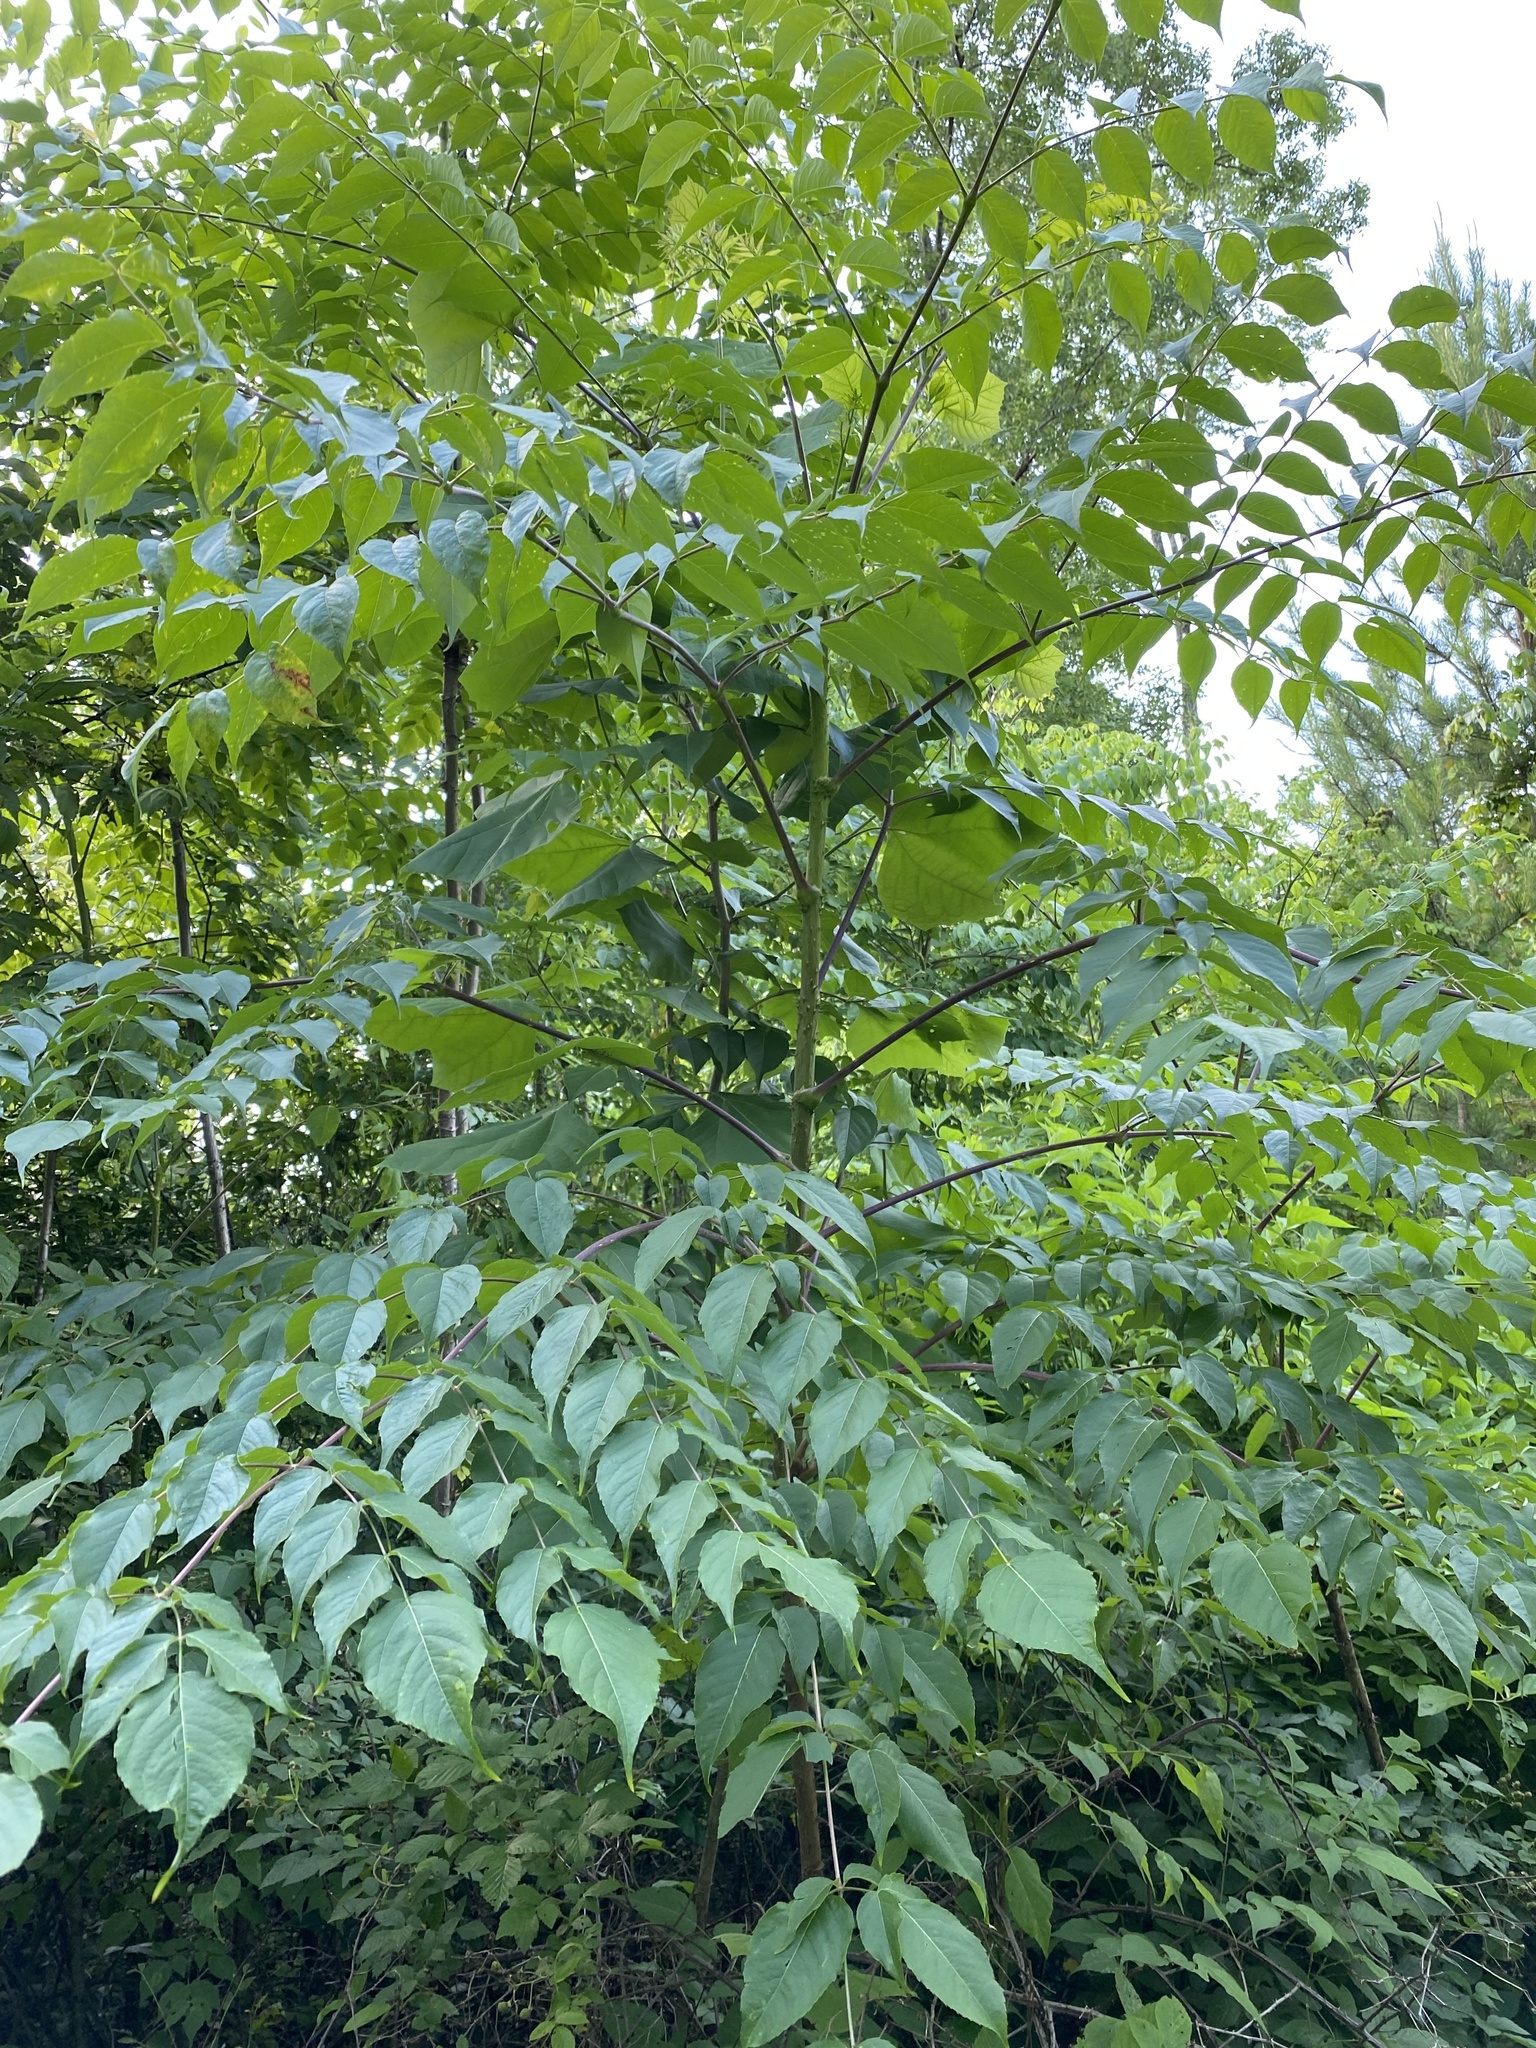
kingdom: Plantae
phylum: Tracheophyta
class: Magnoliopsida
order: Apiales
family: Araliaceae
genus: Aralia
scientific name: Aralia spinosa
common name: Hercules'-club
